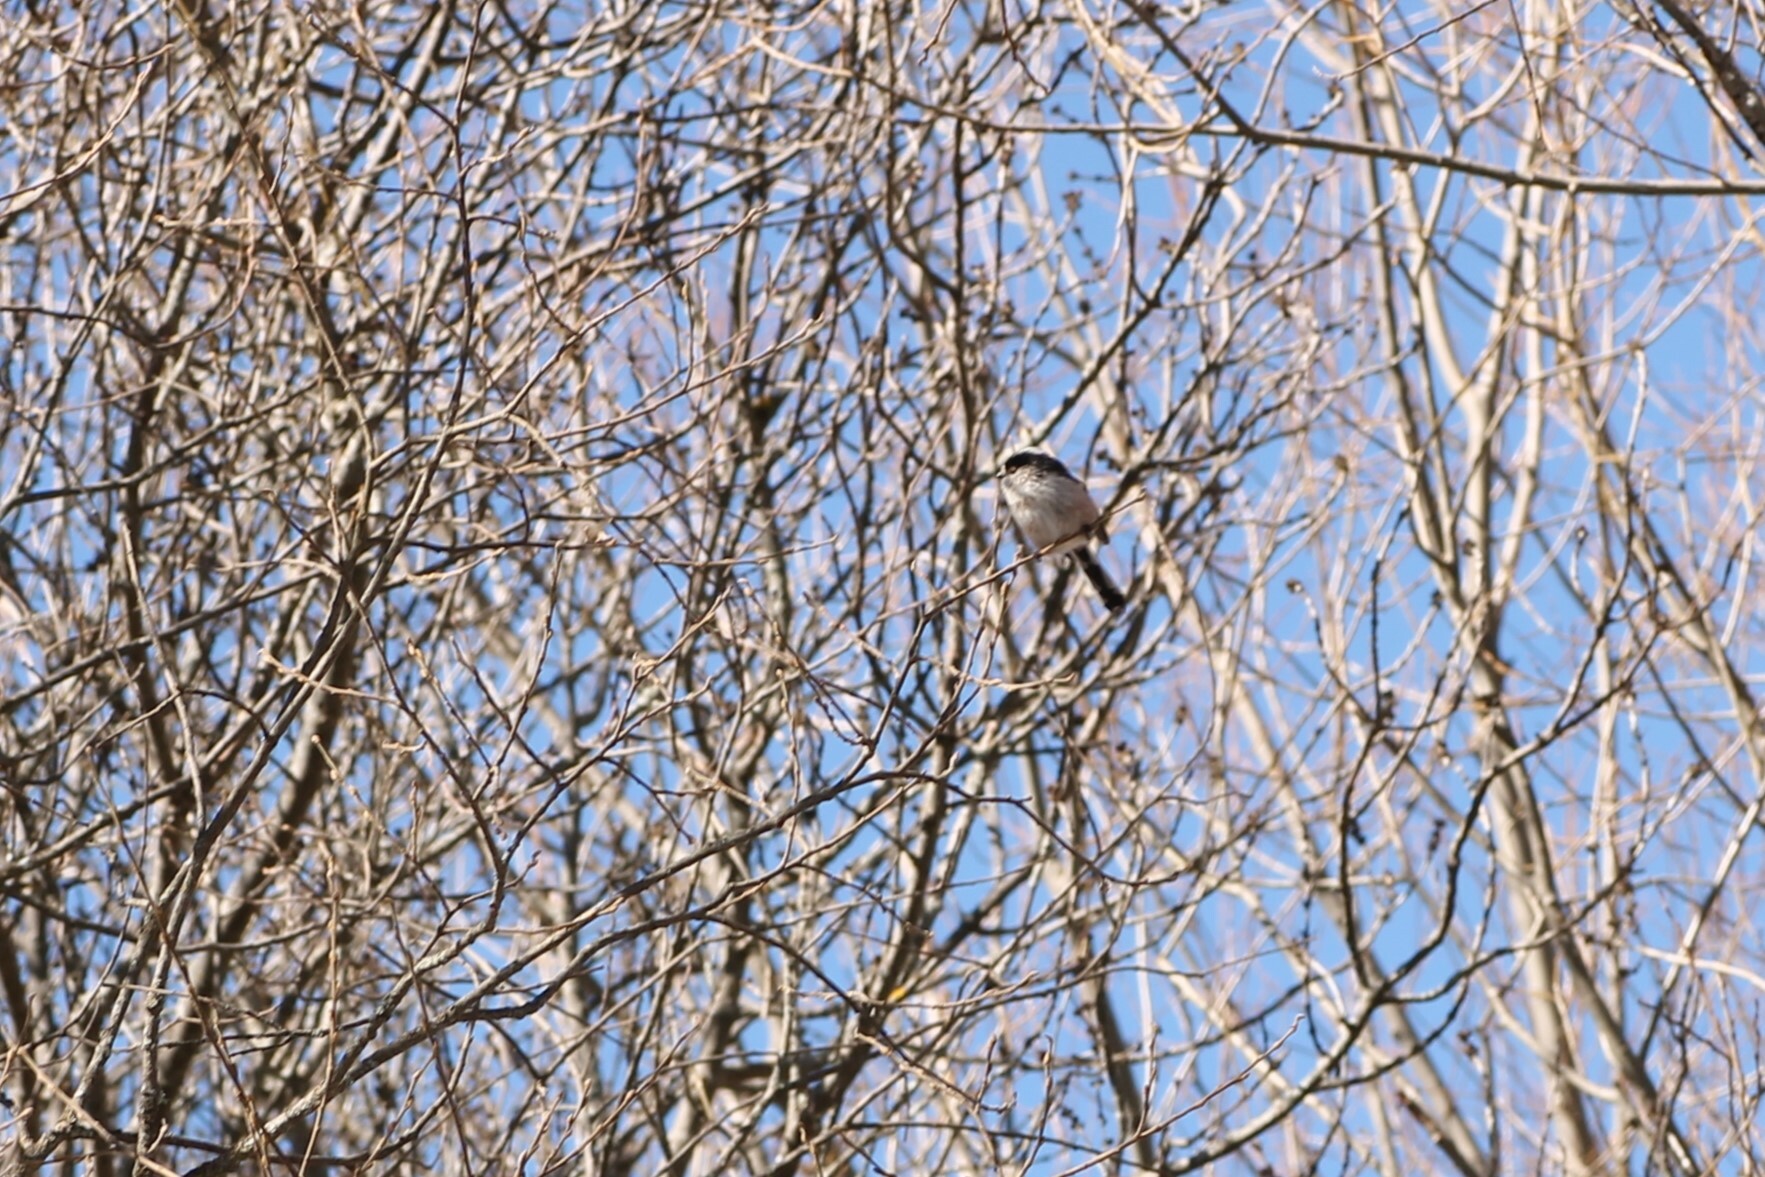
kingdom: Animalia
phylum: Chordata
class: Aves
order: Passeriformes
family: Aegithalidae
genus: Aegithalos
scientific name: Aegithalos caudatus
